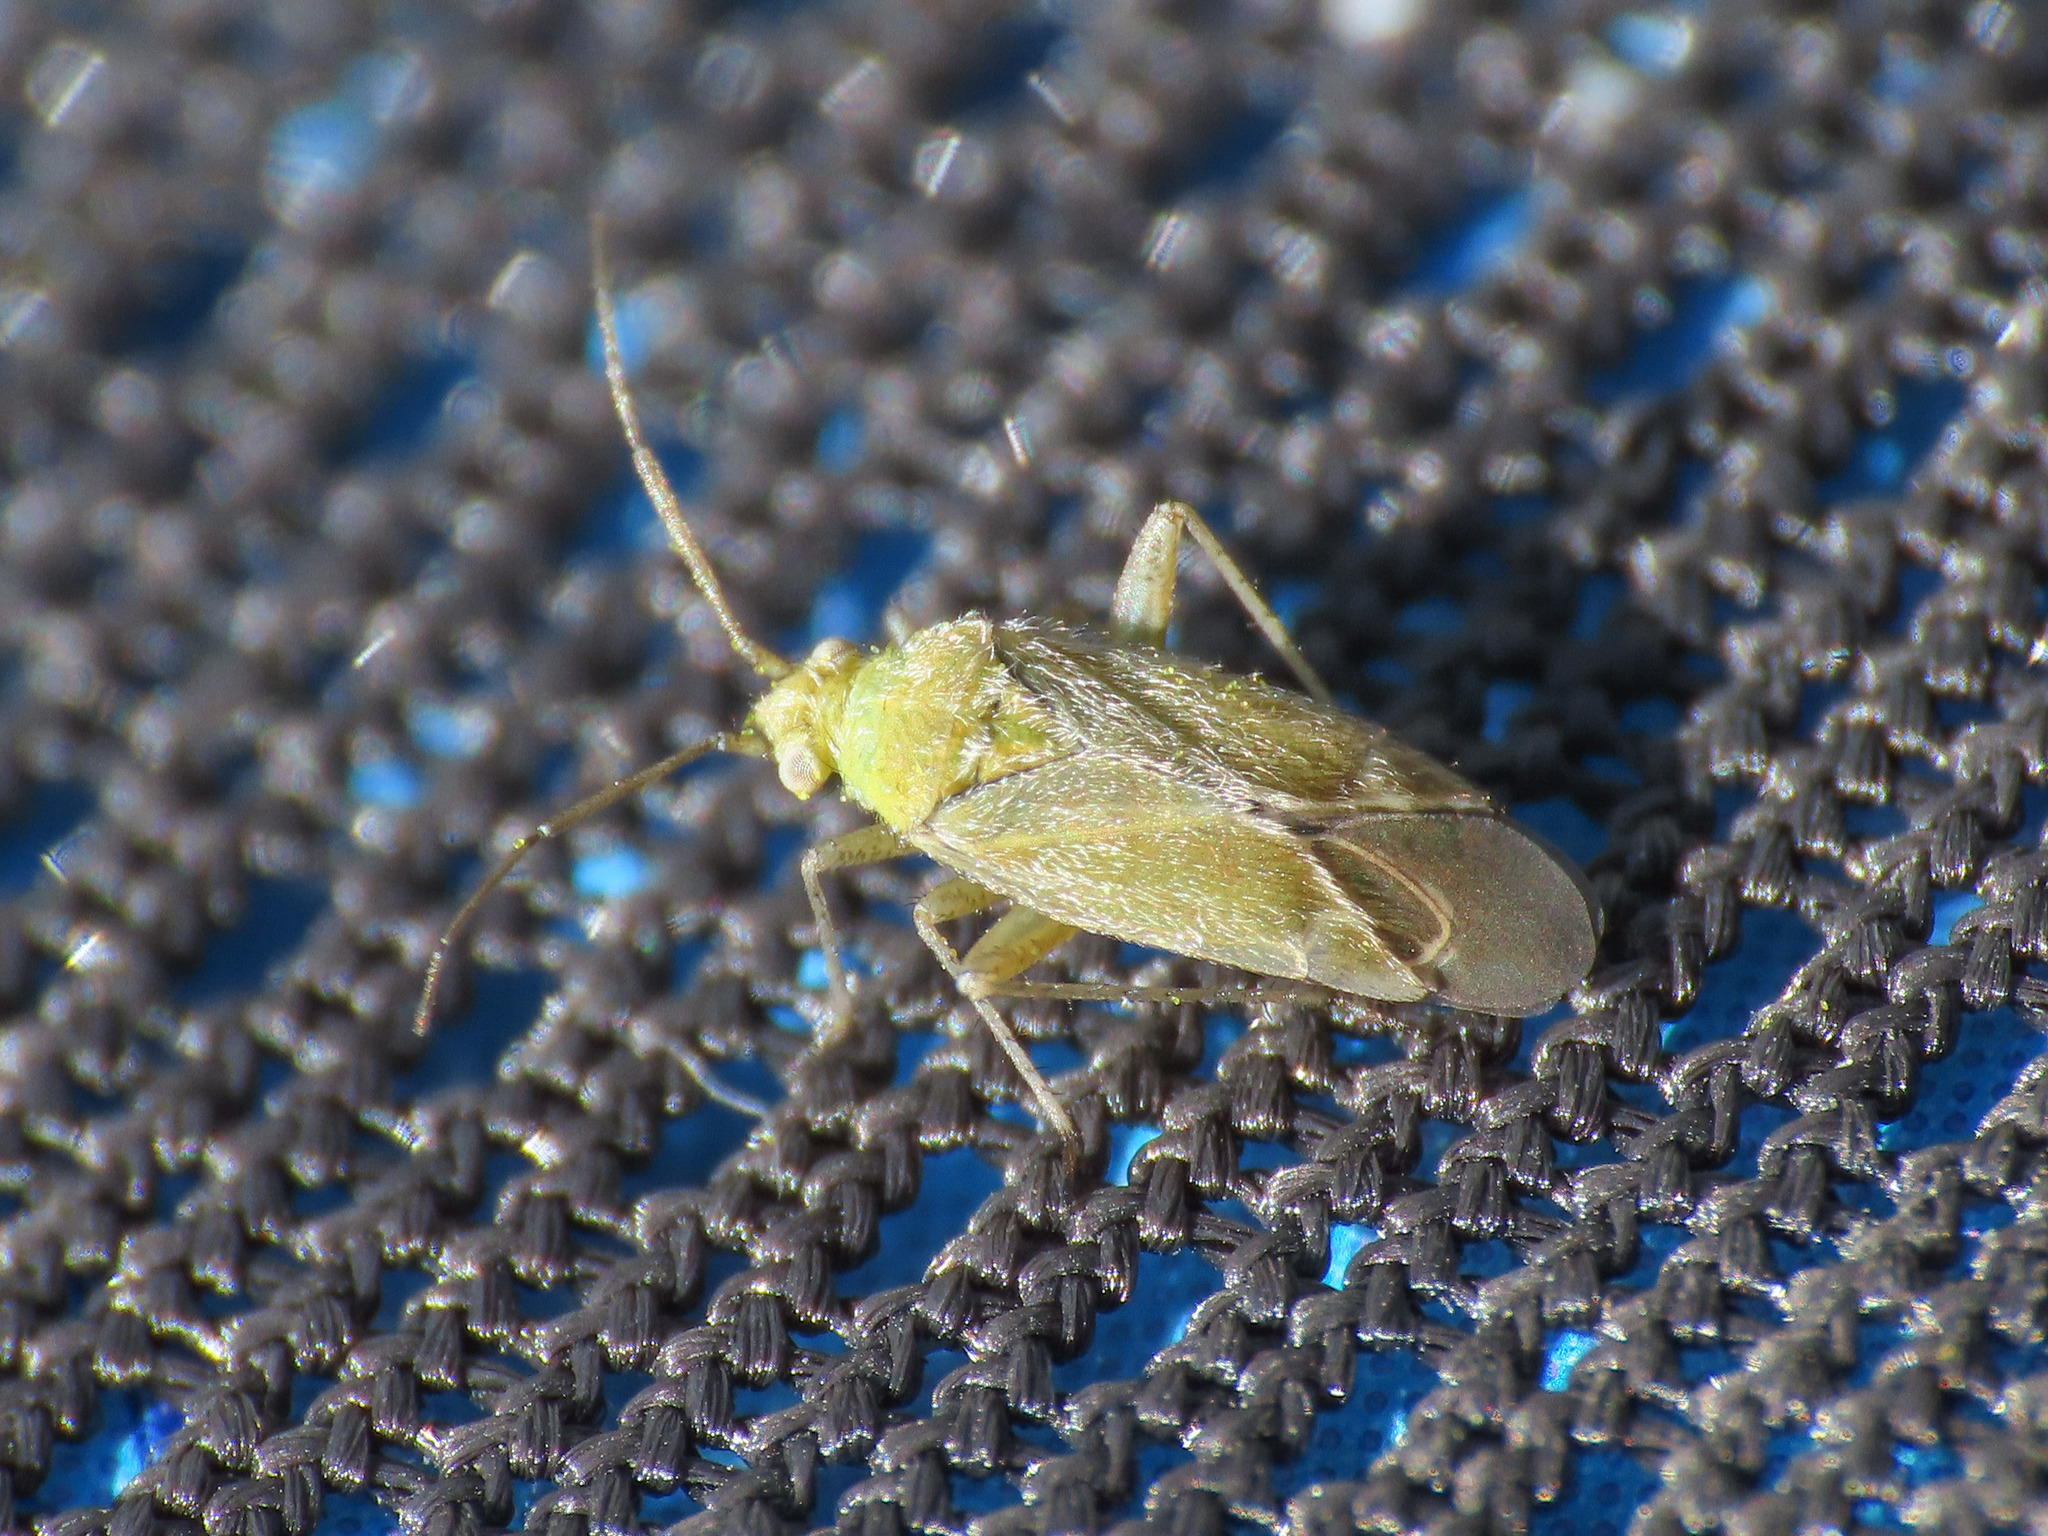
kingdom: Animalia
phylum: Arthropoda
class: Insecta
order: Hemiptera
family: Miridae
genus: Tinicephalus
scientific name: Tinicephalus hortulanus
